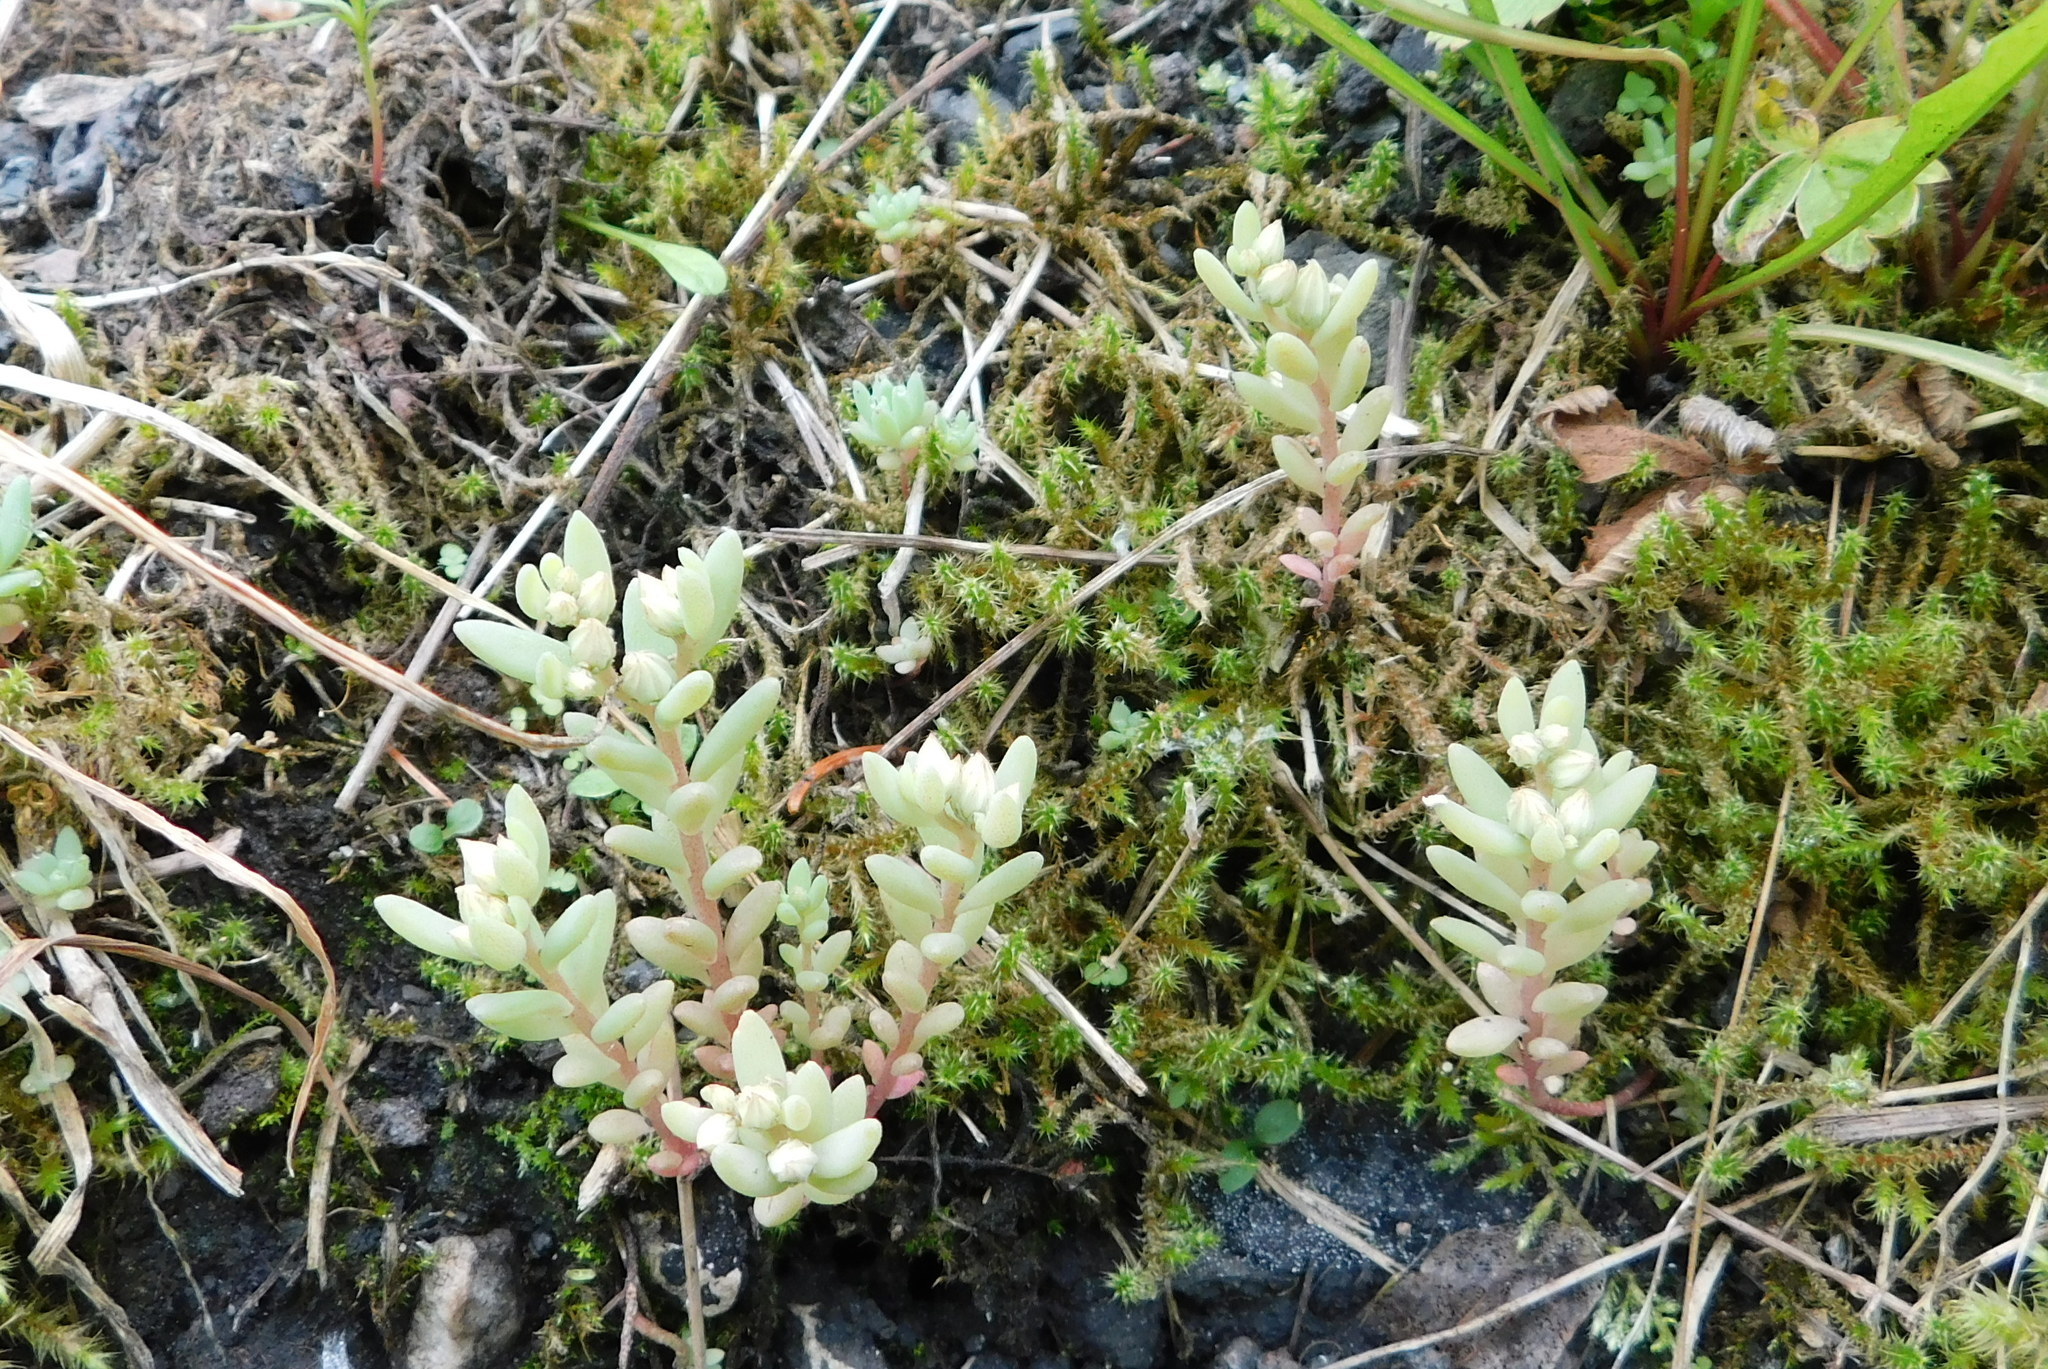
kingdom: Plantae
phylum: Tracheophyta
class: Magnoliopsida
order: Saxifragales
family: Crassulaceae
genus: Sedum
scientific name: Sedum hispanicum
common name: Spanish stonecrop
